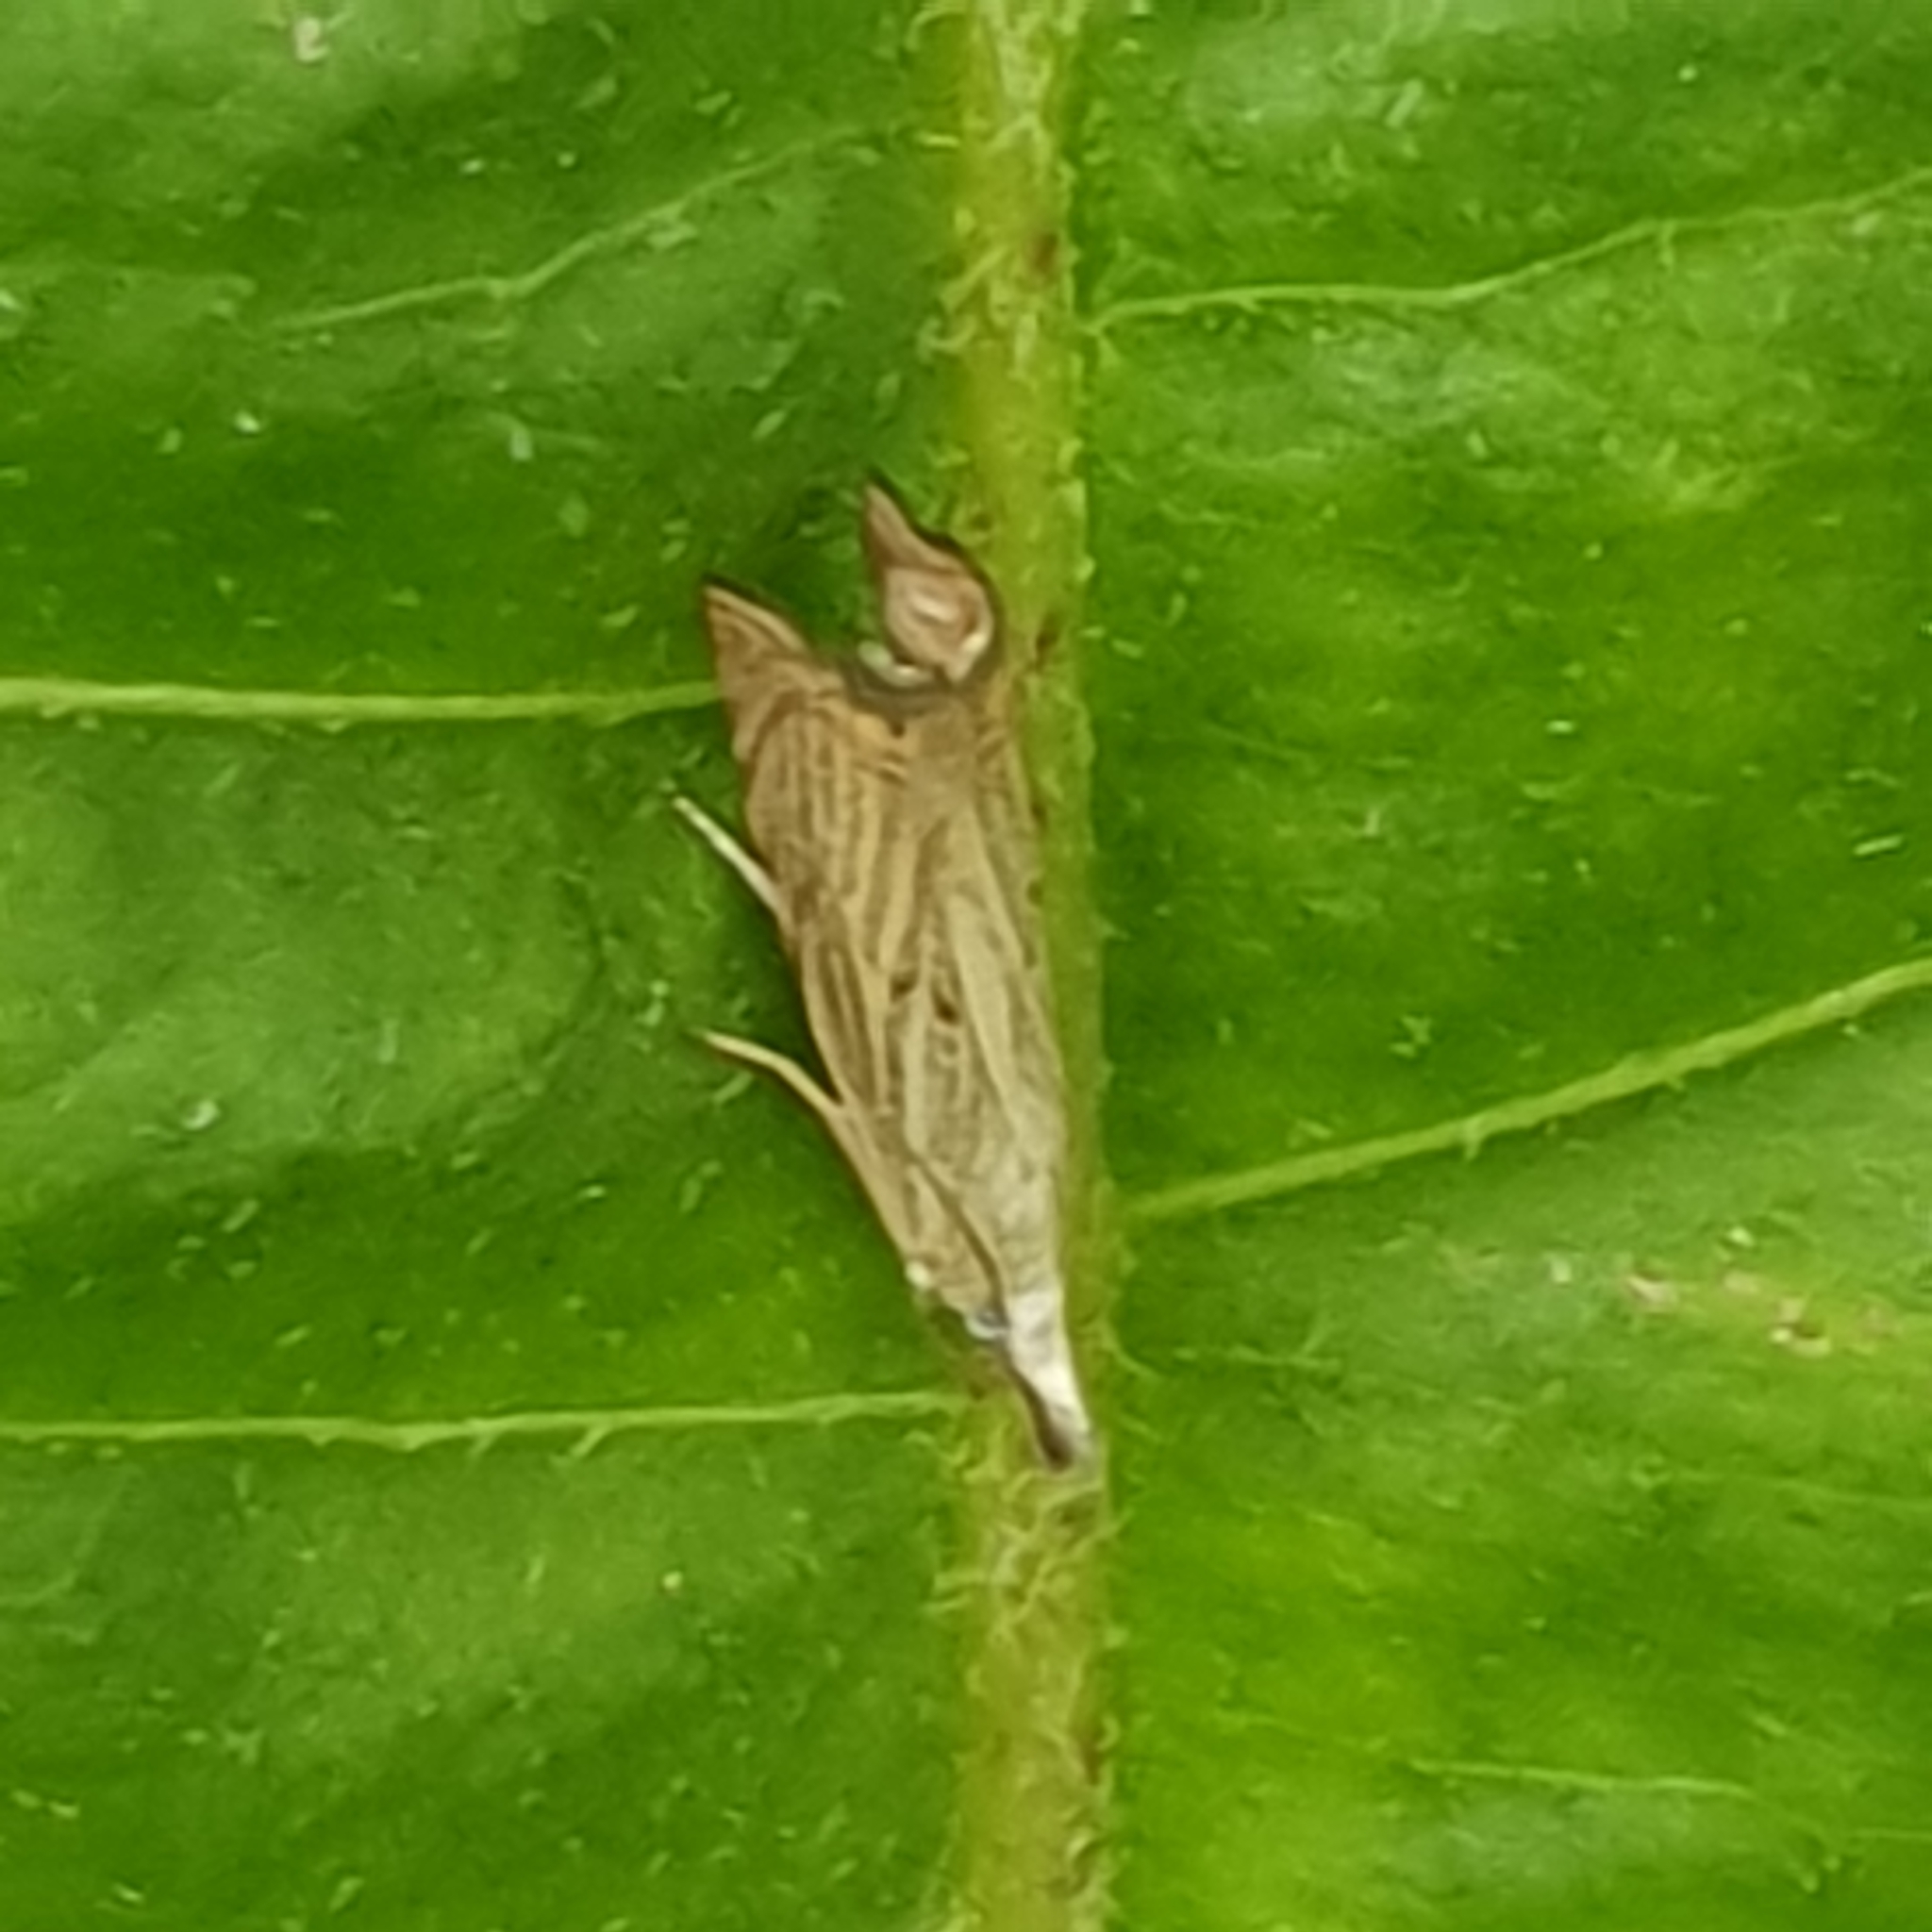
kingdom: Animalia
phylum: Arthropoda
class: Insecta
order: Lepidoptera
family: Crambidae
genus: Chrysoteuchia
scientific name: Chrysoteuchia culmella
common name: Garden grass-veneer
